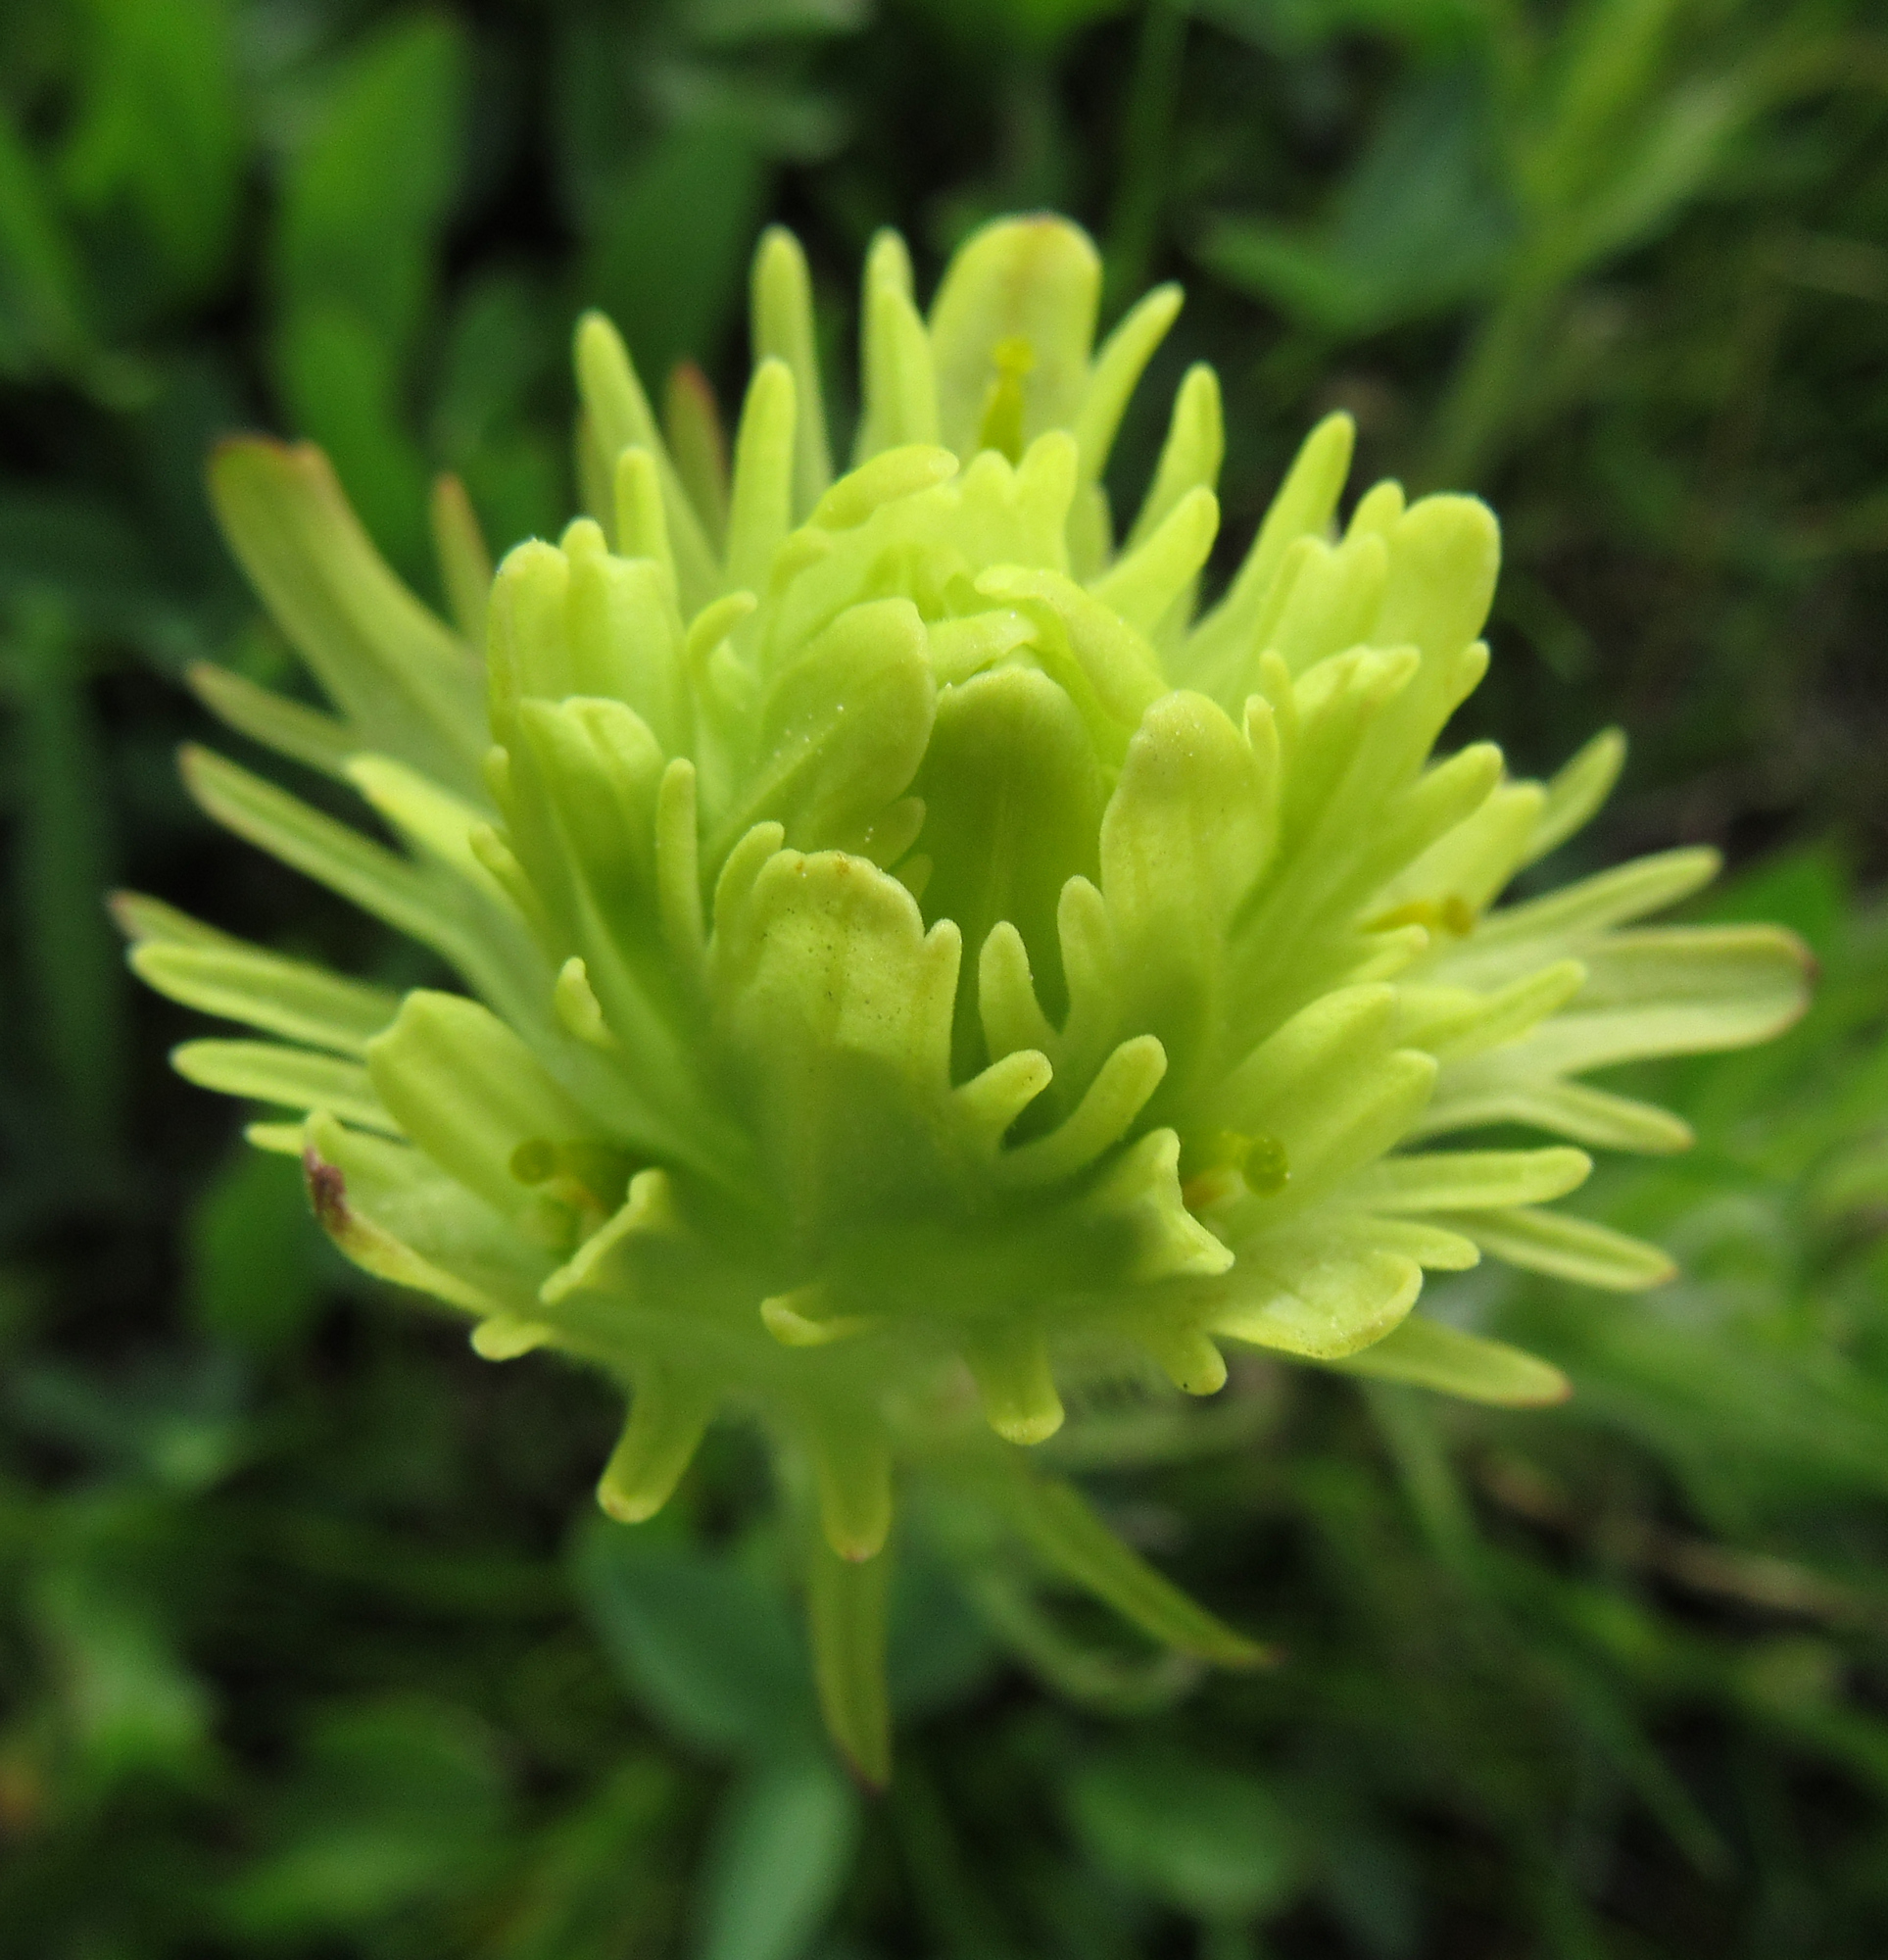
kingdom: Plantae
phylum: Tracheophyta
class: Magnoliopsida
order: Lamiales
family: Orobanchaceae
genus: Castilleja
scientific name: Castilleja cusickii
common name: Cusick's paintbrush
